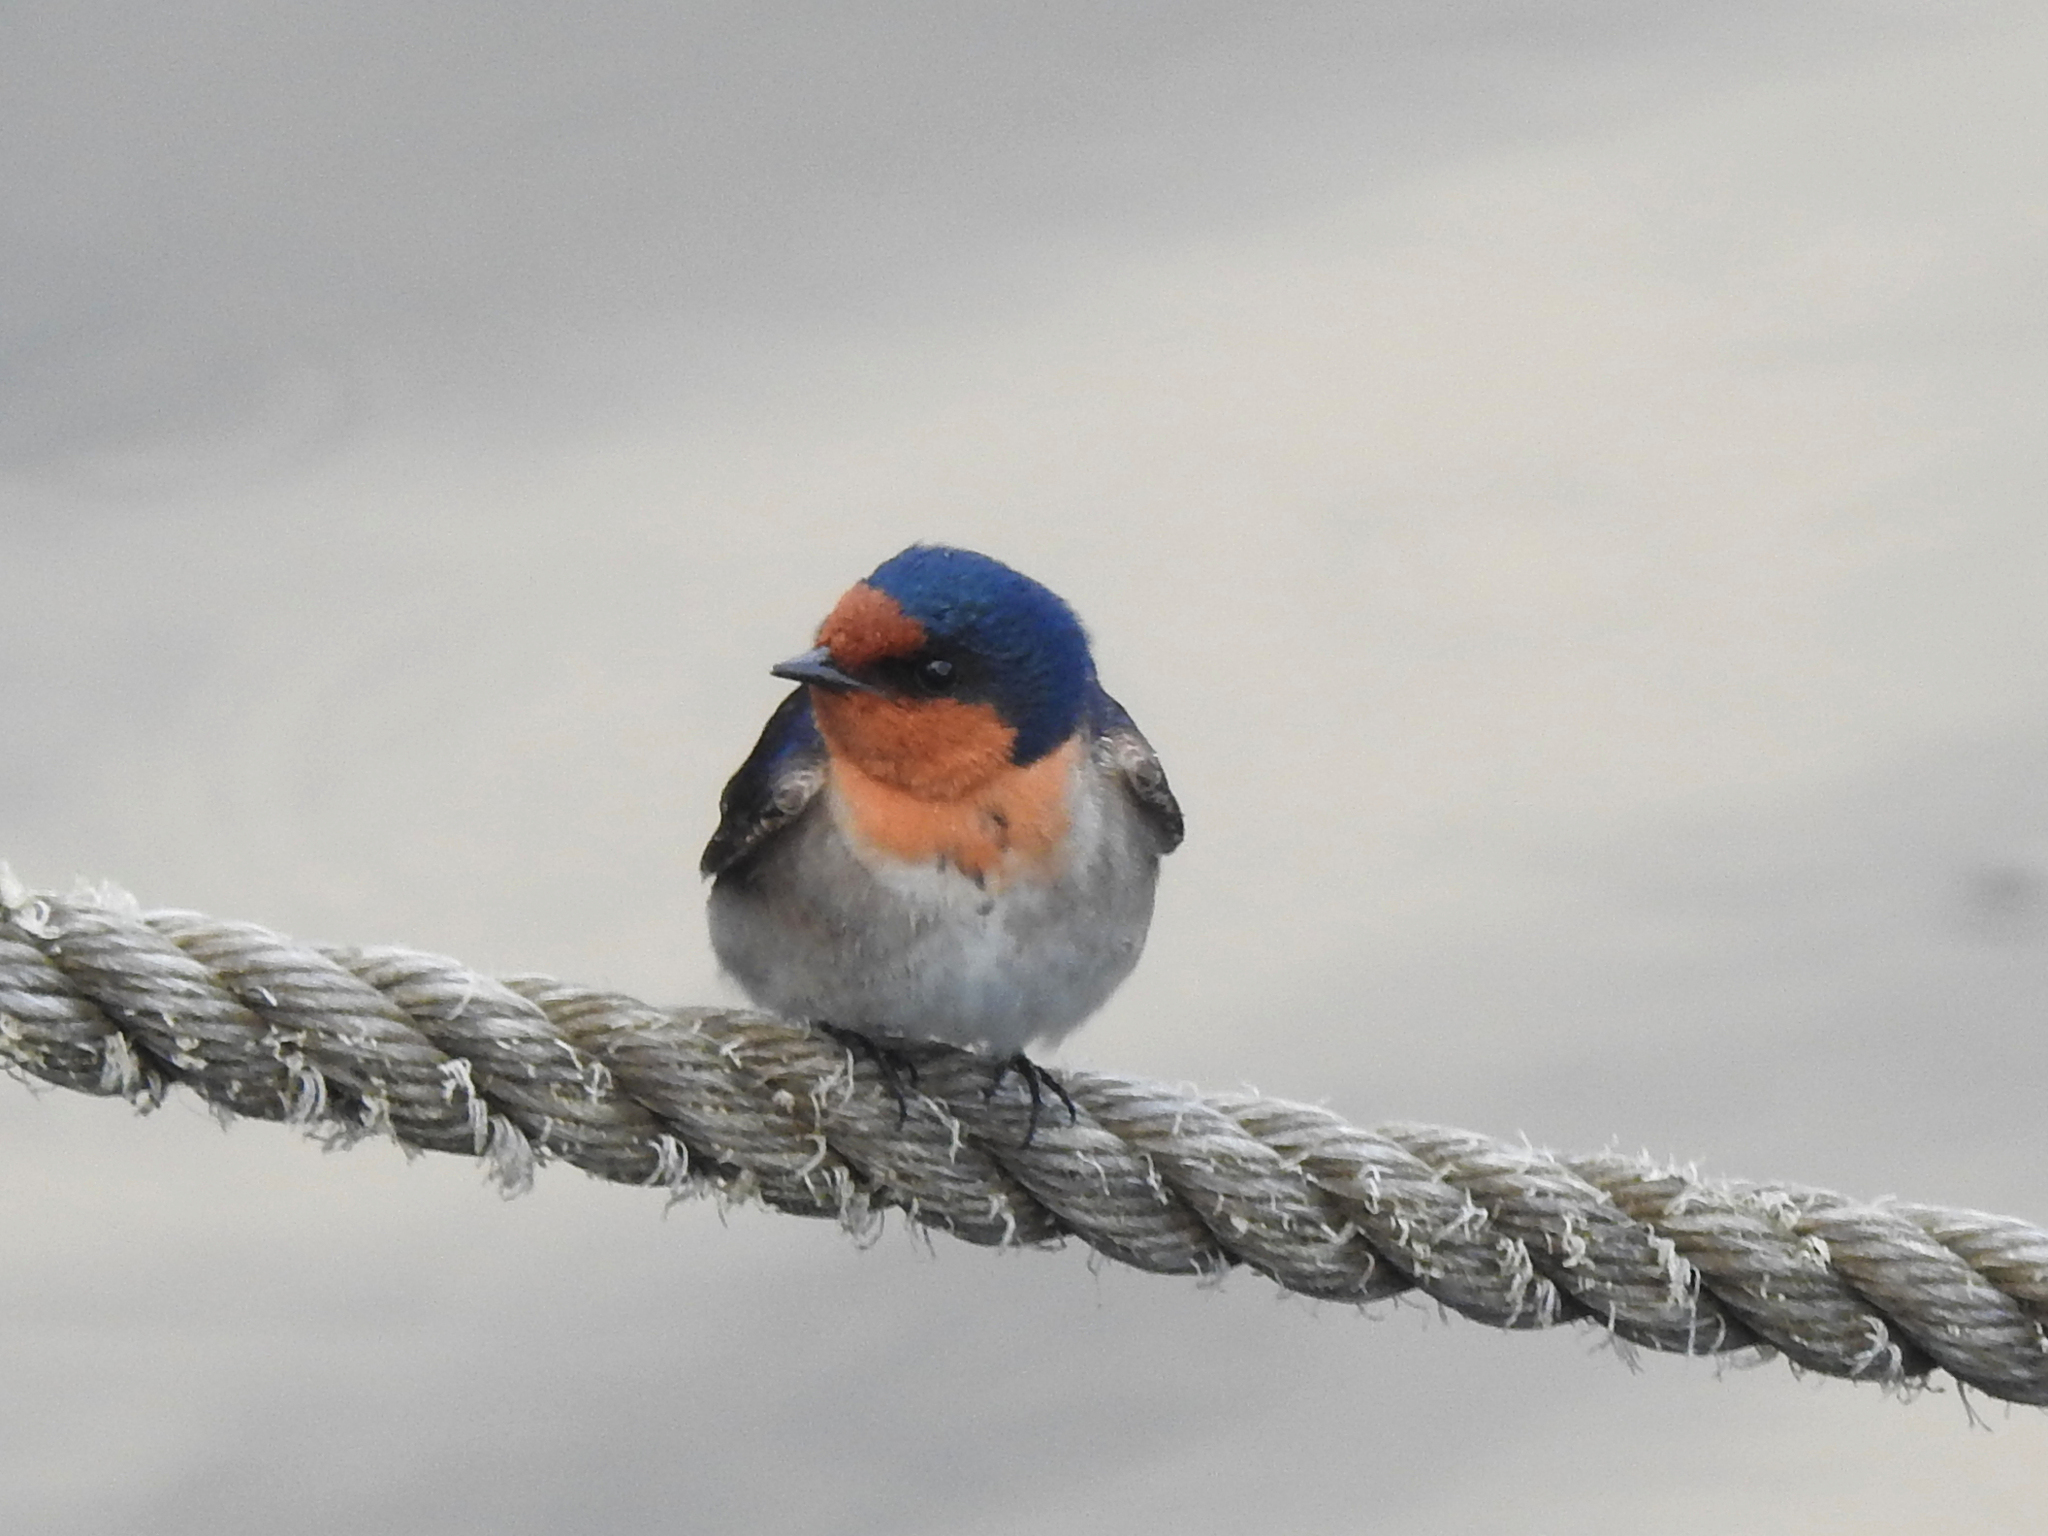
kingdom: Animalia
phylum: Chordata
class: Aves
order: Passeriformes
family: Hirundinidae
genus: Hirundo
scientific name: Hirundo neoxena
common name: Welcome swallow
